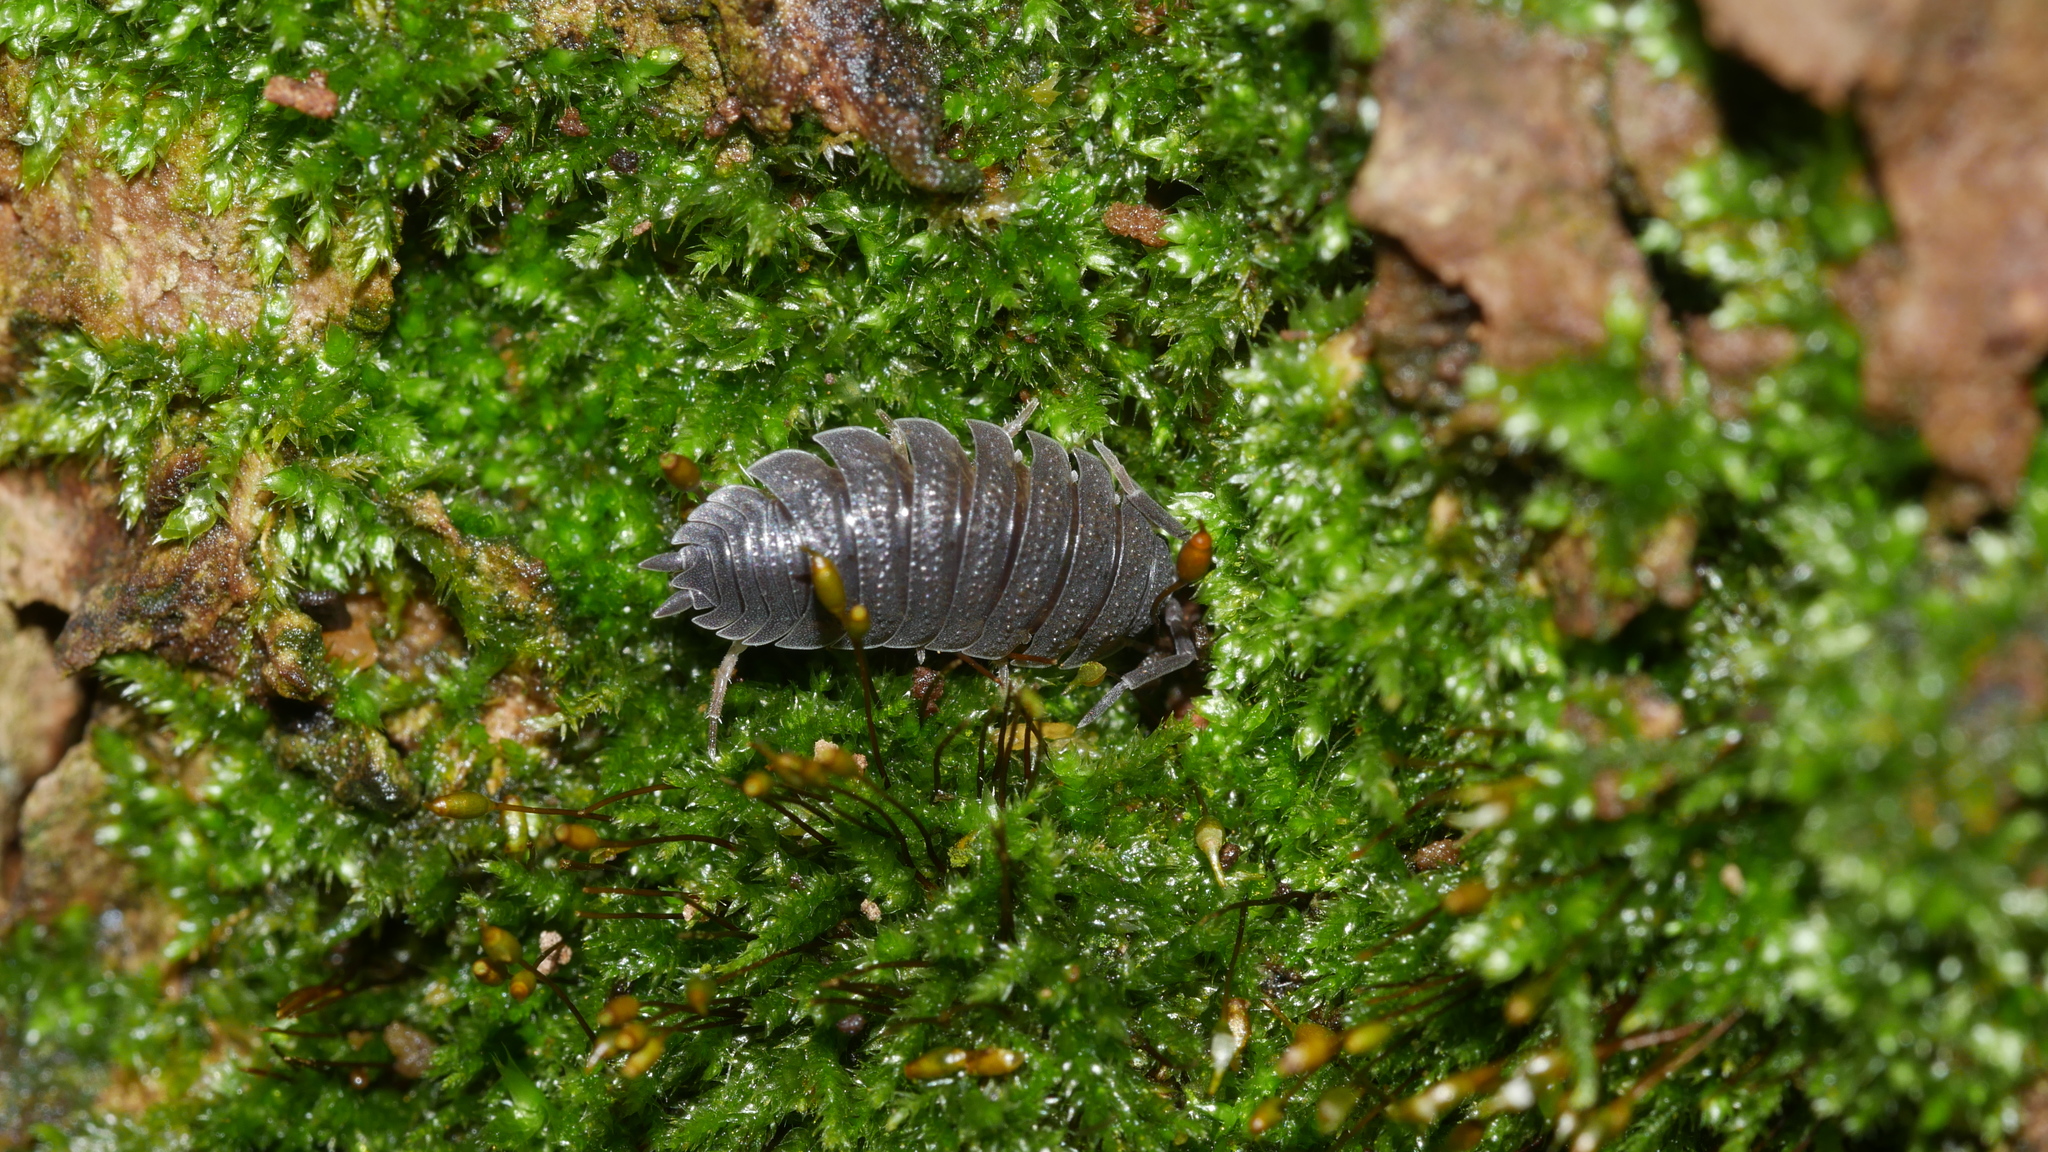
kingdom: Animalia
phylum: Arthropoda
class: Malacostraca
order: Isopoda
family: Porcellionidae
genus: Porcellio
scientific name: Porcellio scaber
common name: Common rough woodlouse
